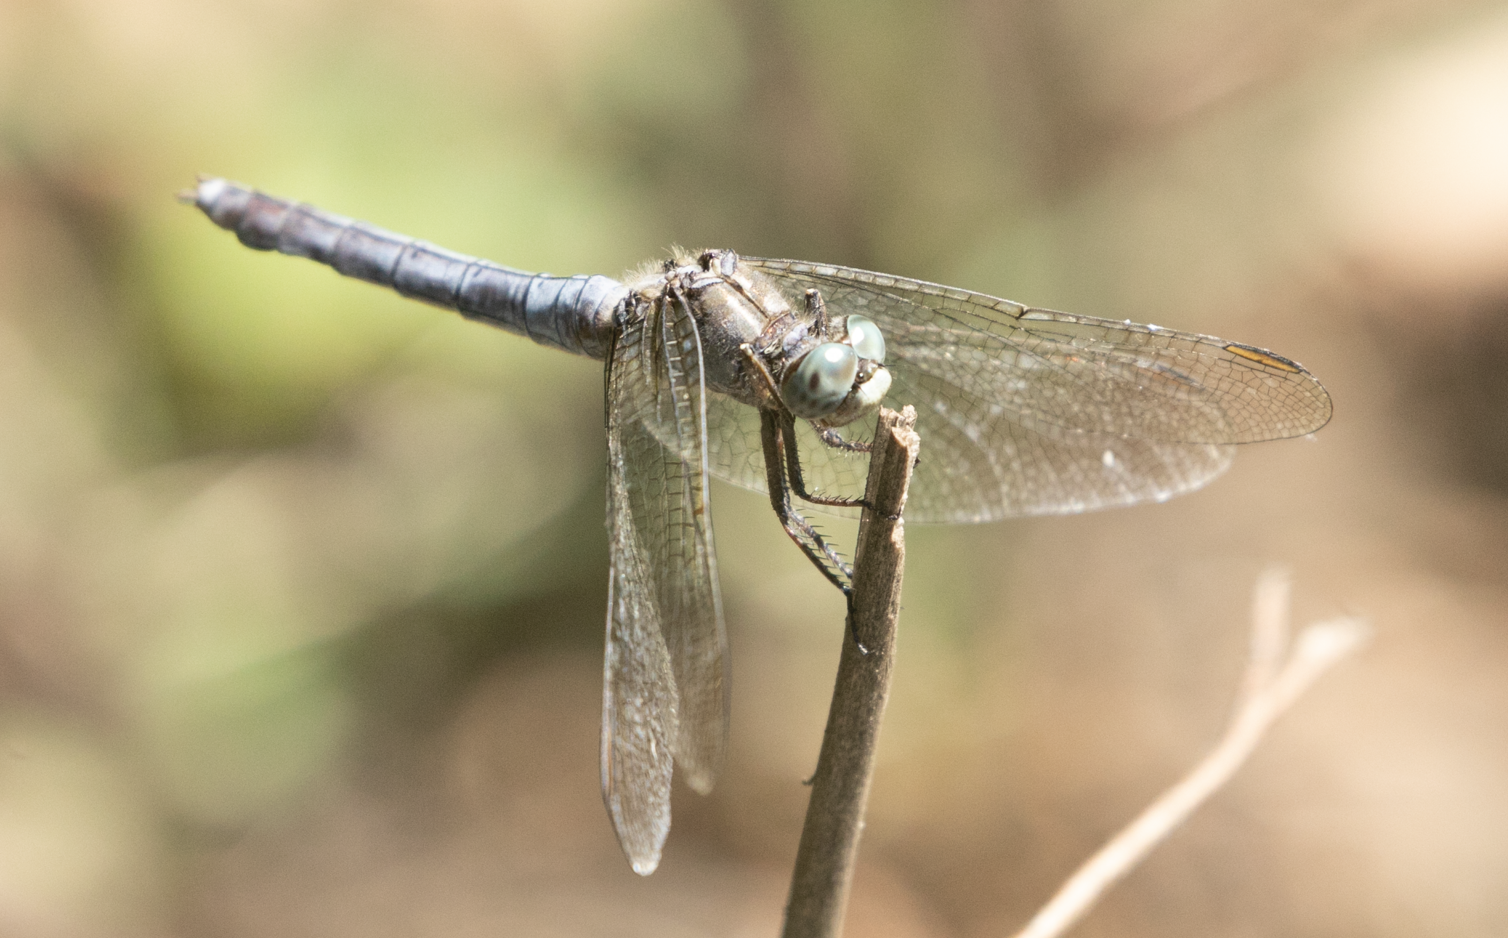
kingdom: Animalia
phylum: Arthropoda
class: Insecta
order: Odonata
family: Libellulidae
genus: Orthetrum
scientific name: Orthetrum coerulescens
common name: Keeled skimmer
